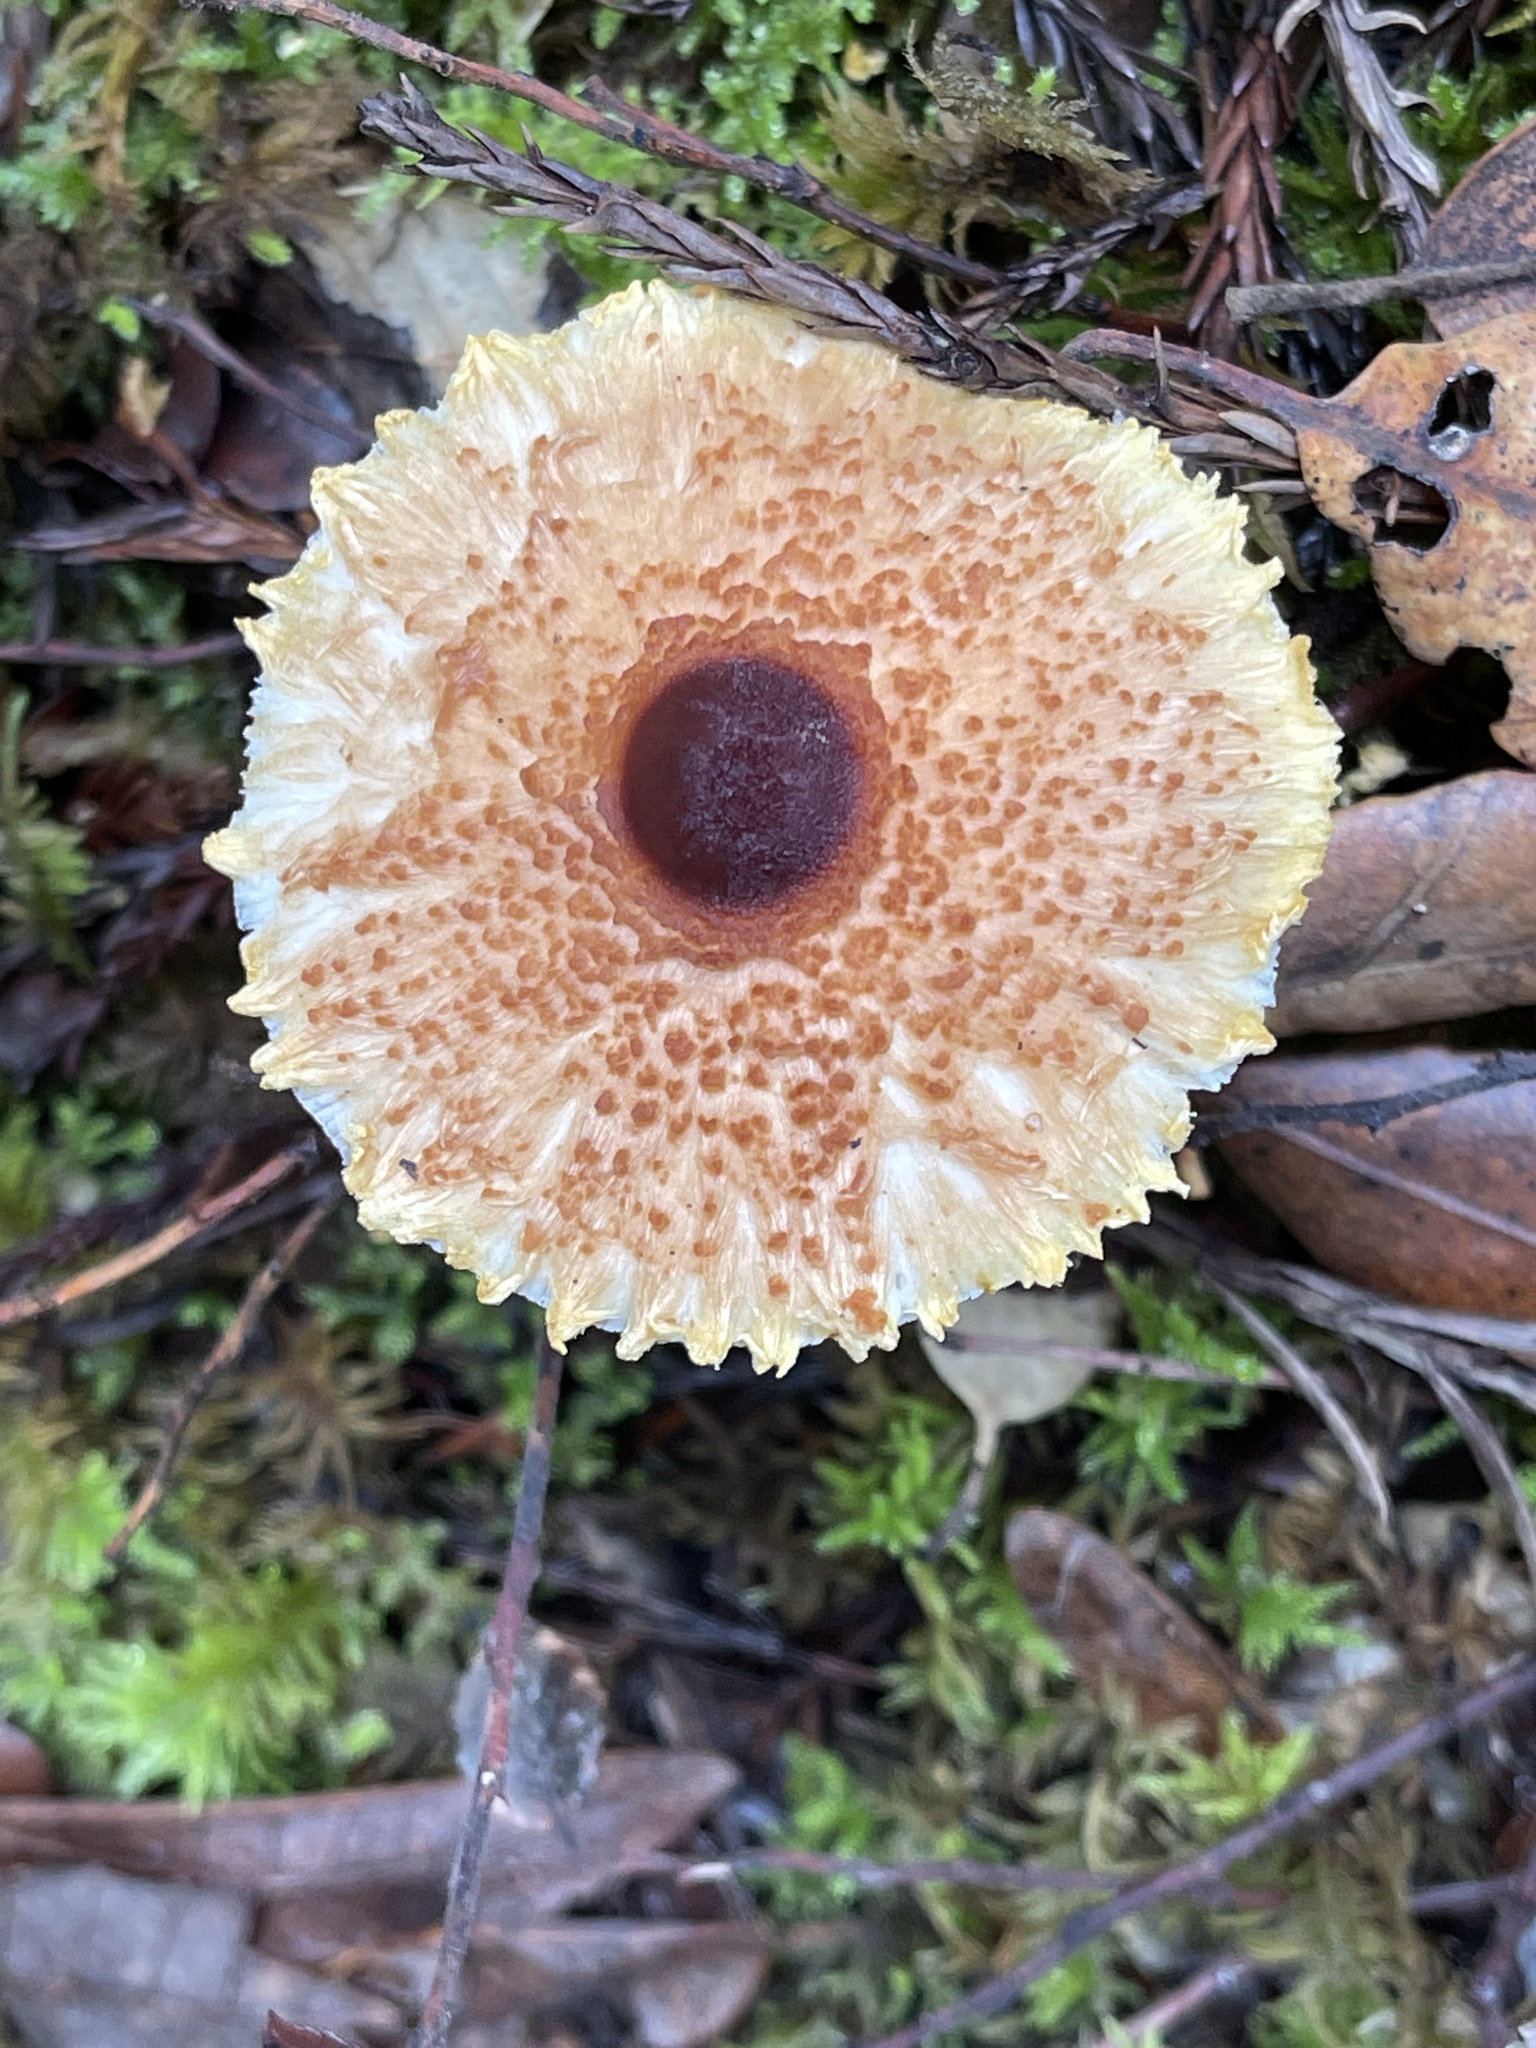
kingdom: Fungi
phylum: Basidiomycota
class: Agaricomycetes
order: Agaricales
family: Agaricaceae
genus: Lepiota
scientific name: Lepiota magnispora
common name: Yellowfoot dapperling
